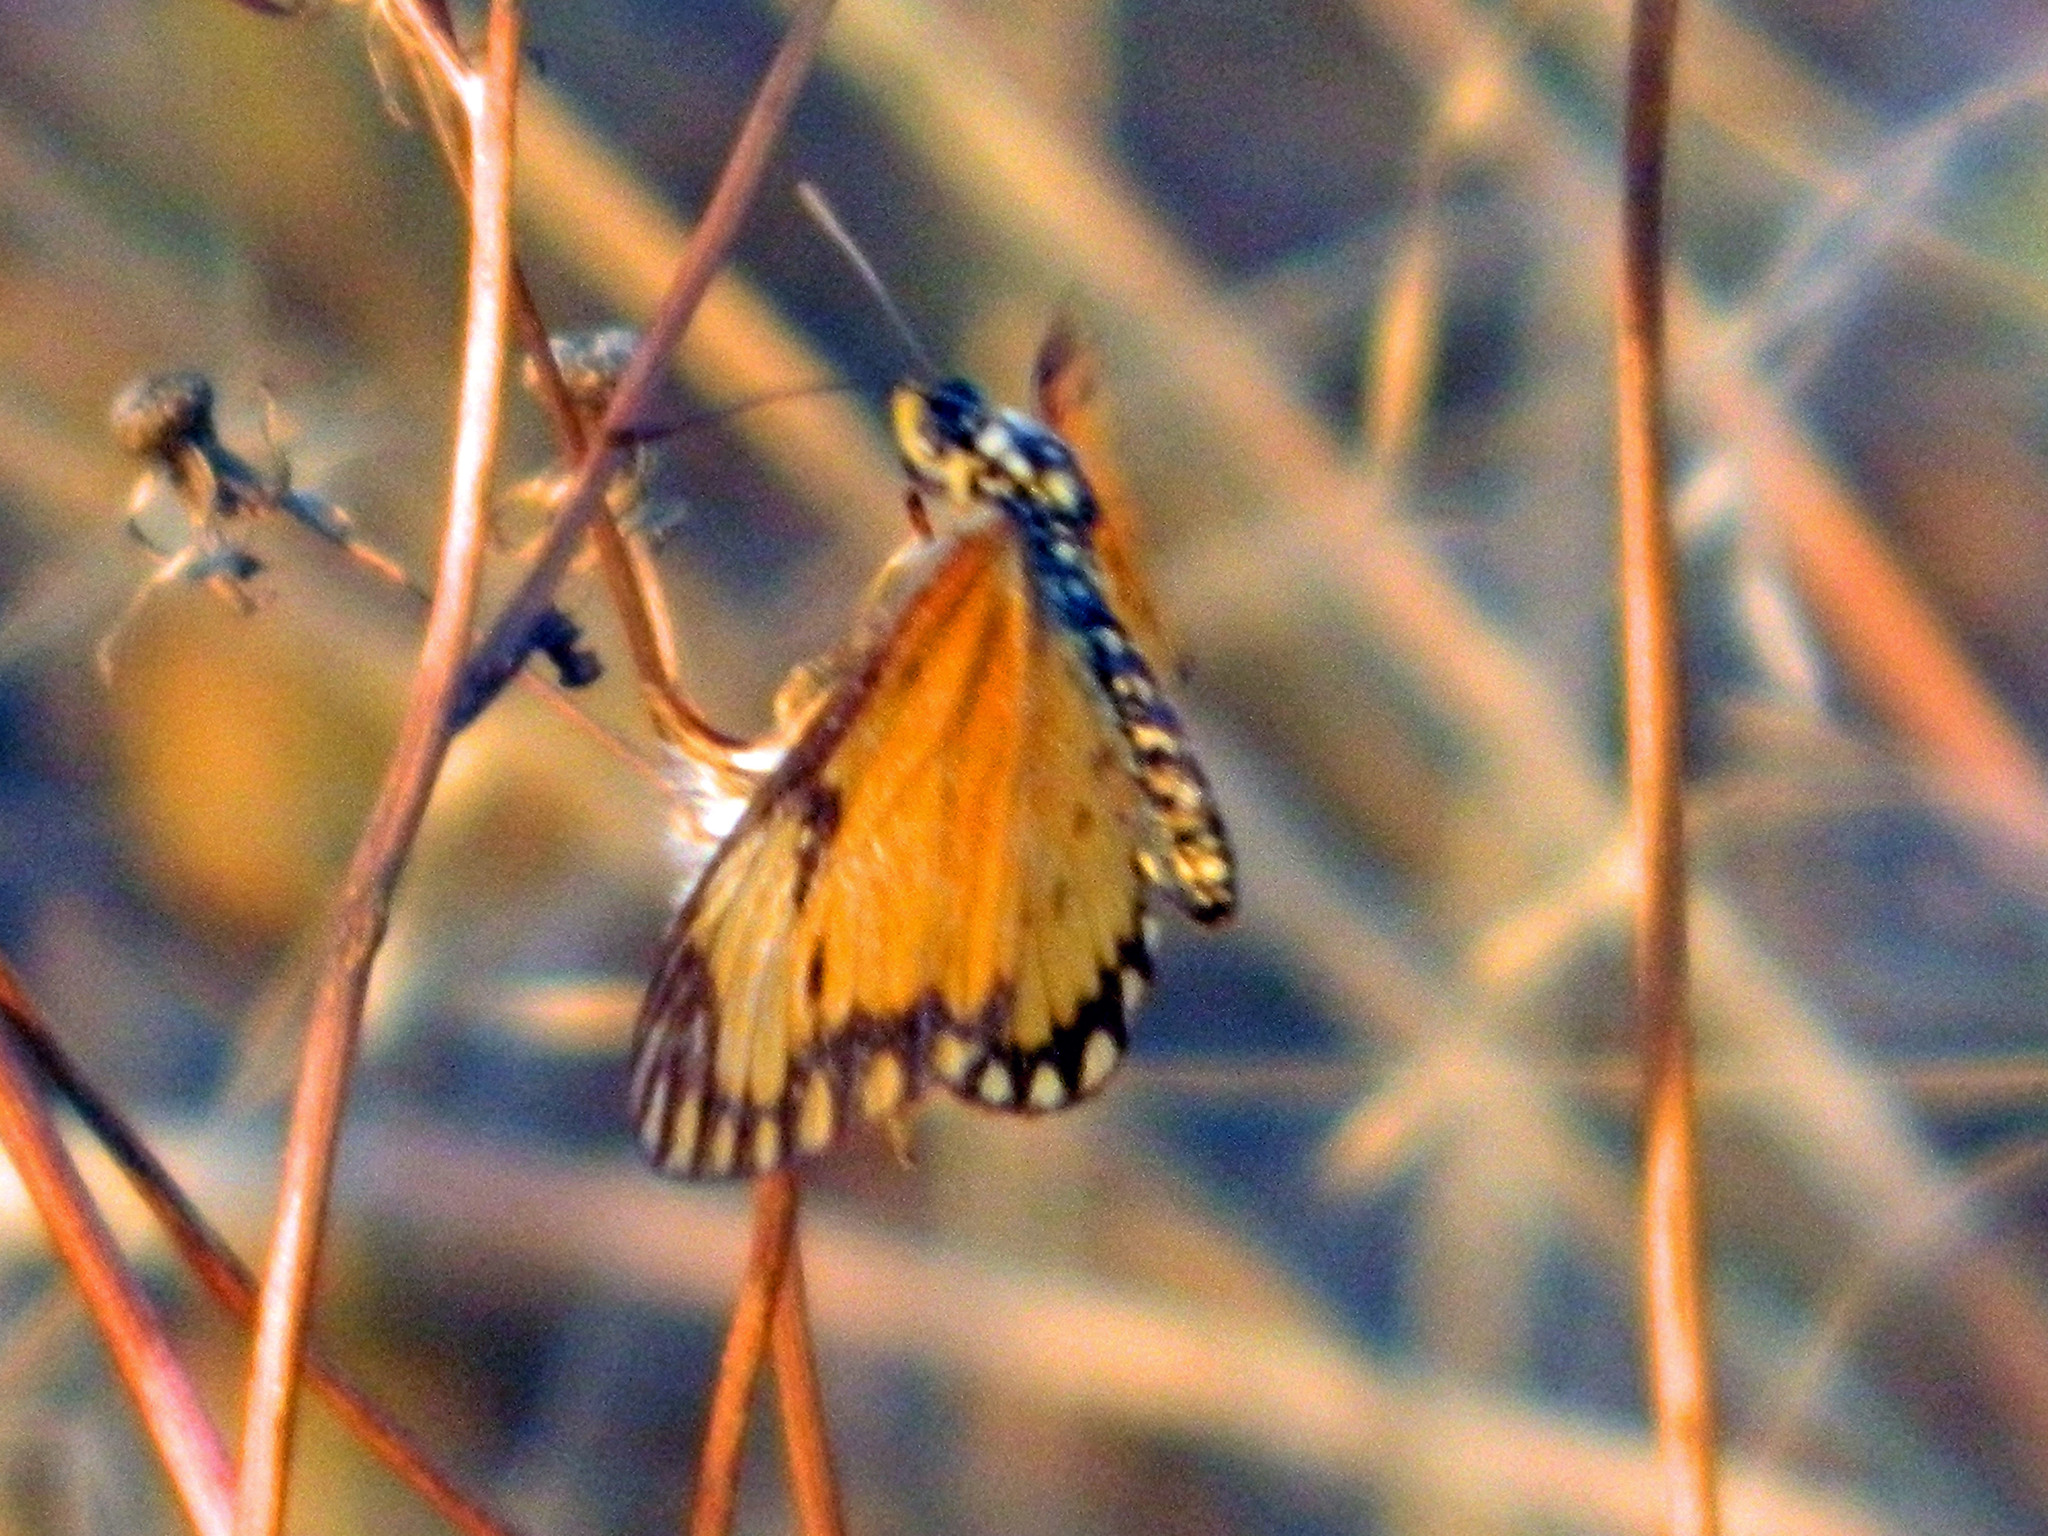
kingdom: Animalia
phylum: Arthropoda
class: Insecta
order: Lepidoptera
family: Nymphalidae
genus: Acraea
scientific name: Acraea Telchinia serena
